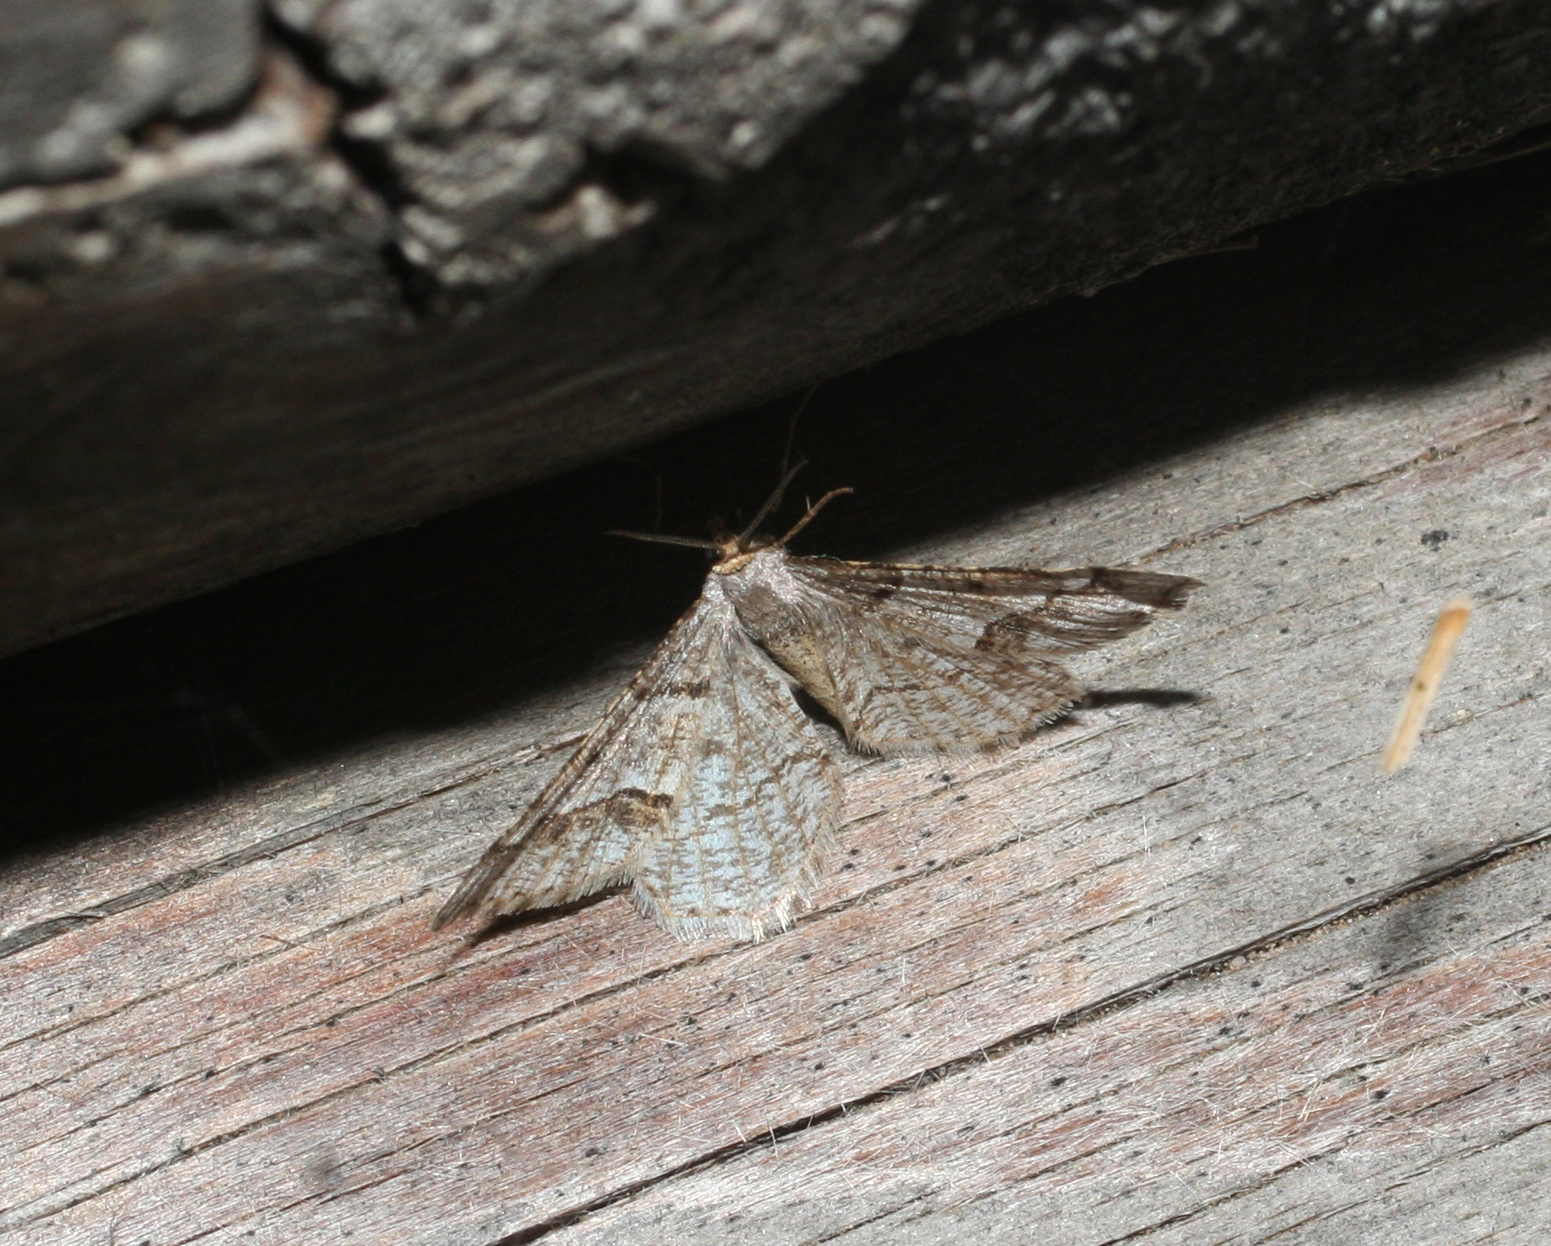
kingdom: Animalia
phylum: Arthropoda
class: Insecta
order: Lepidoptera
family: Geometridae
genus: Tephrina
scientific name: Tephrina murinaria
